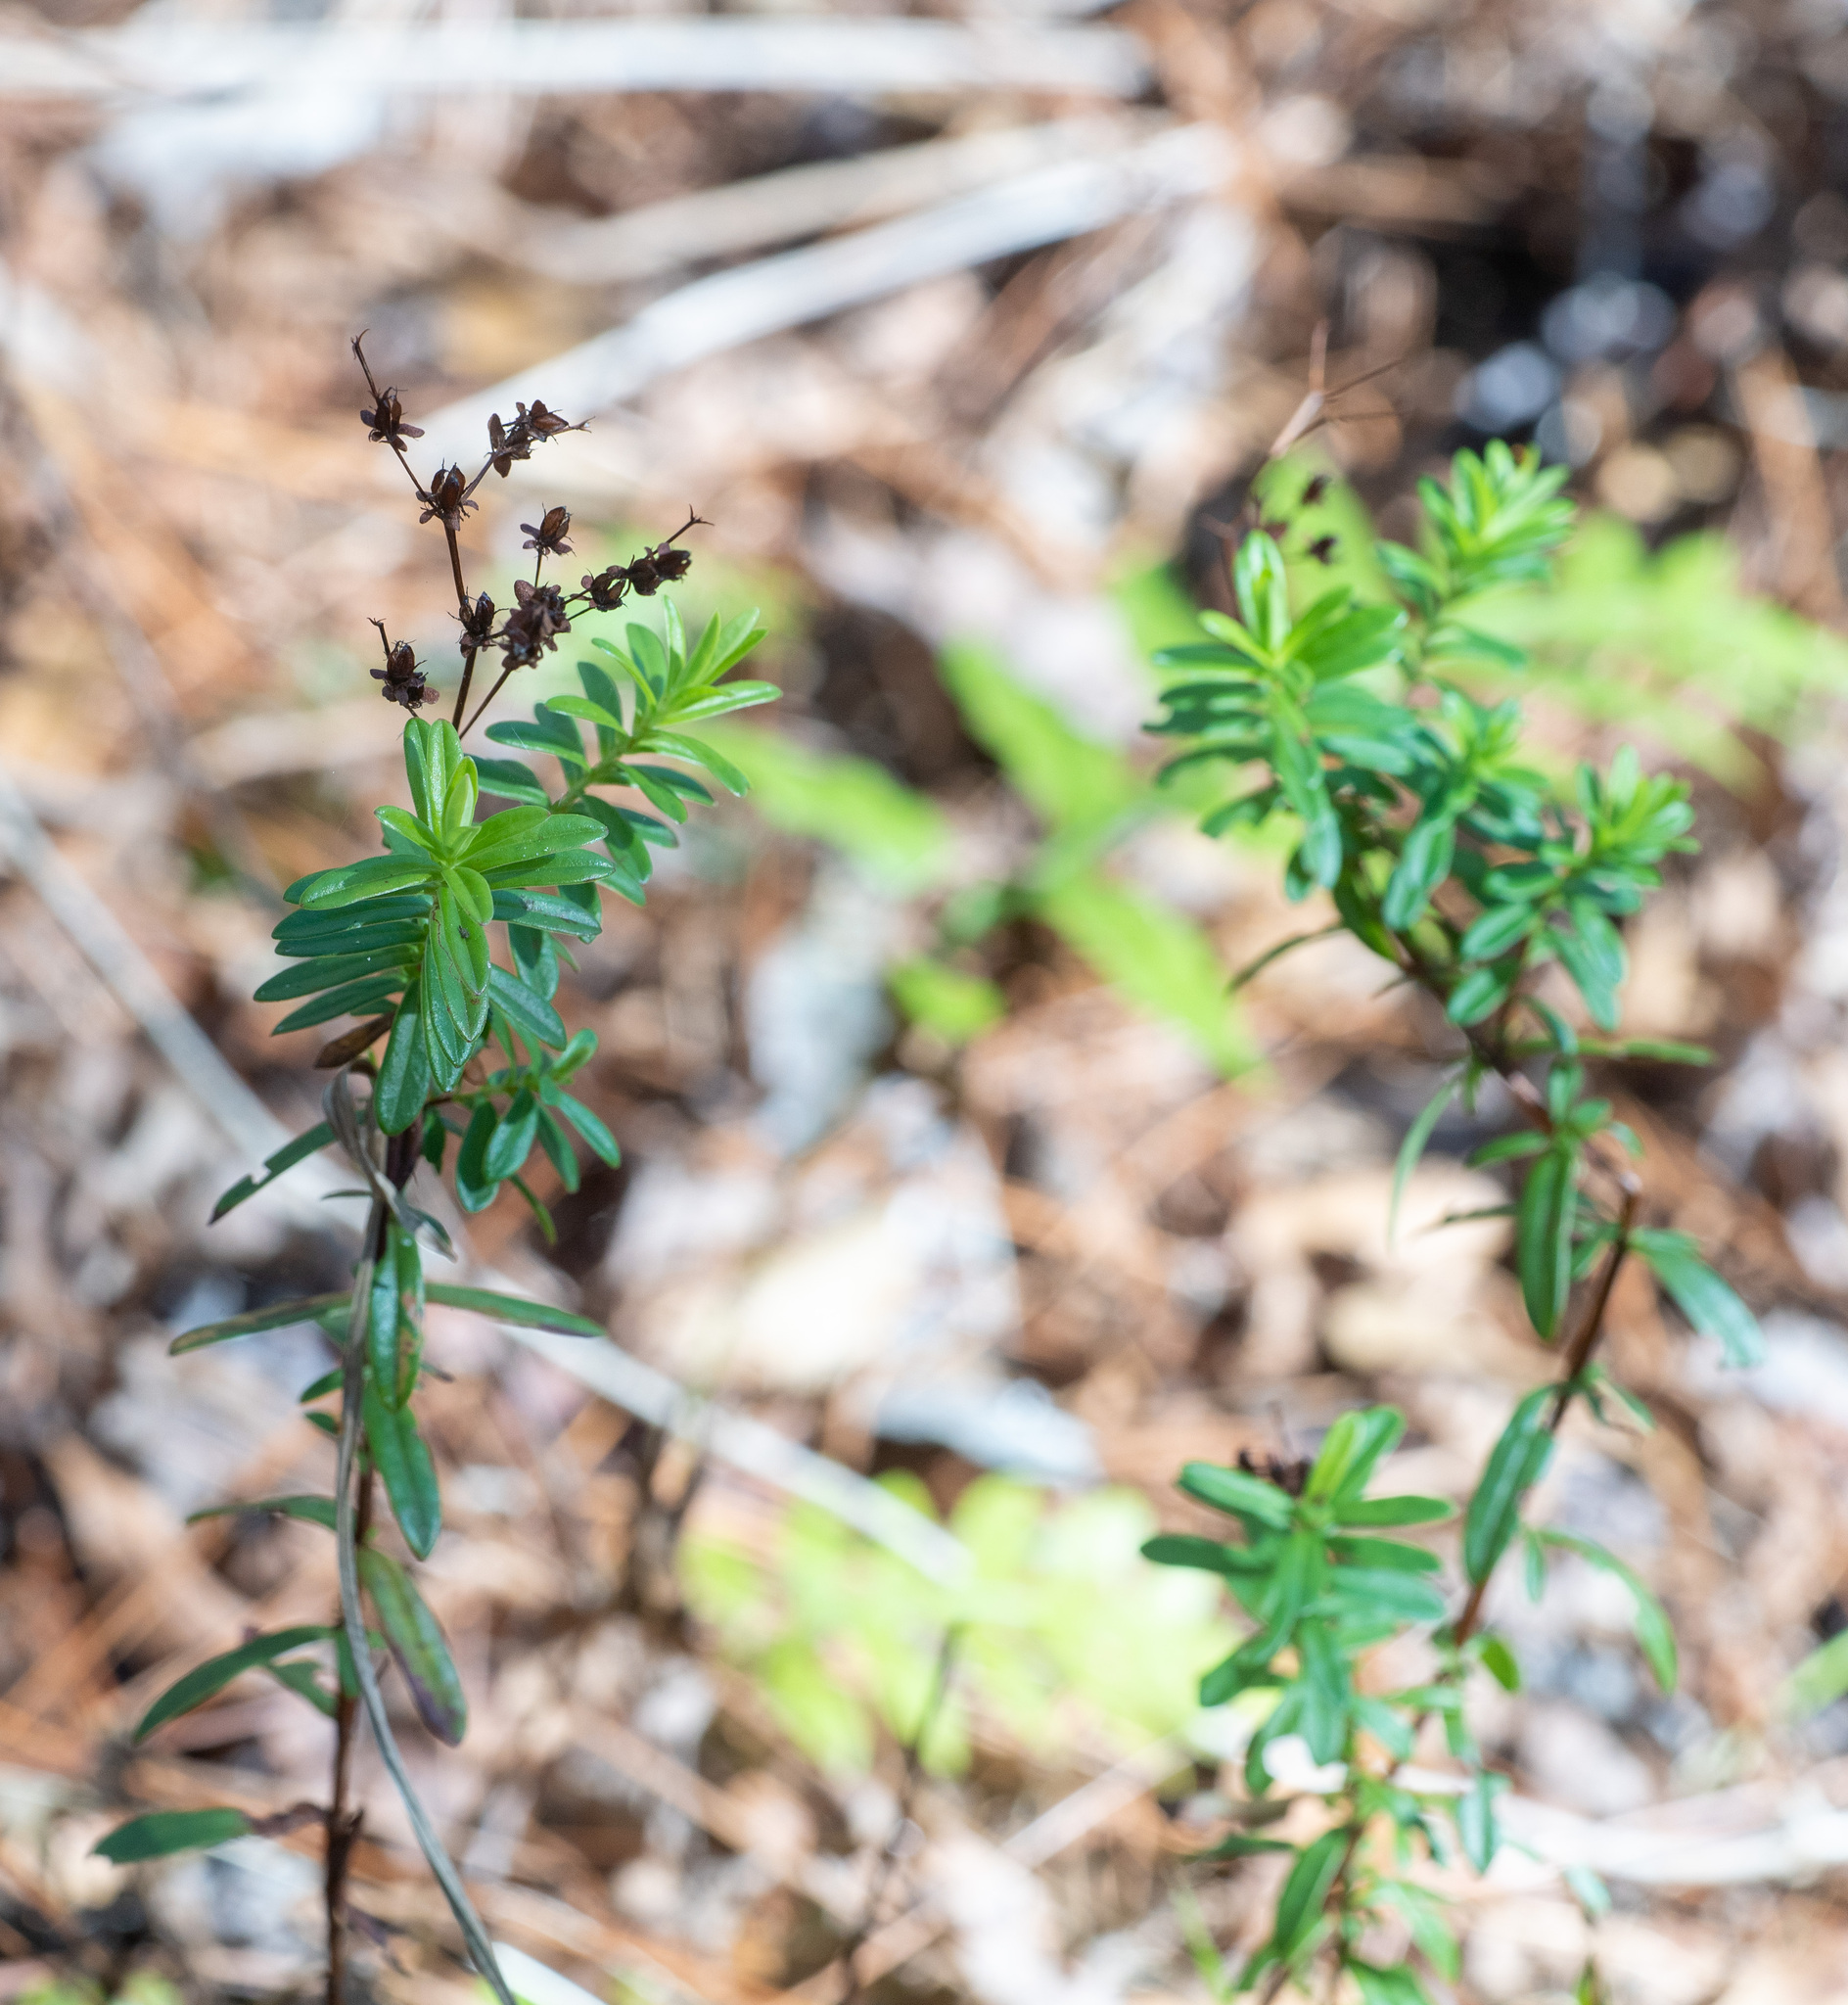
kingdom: Plantae
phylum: Tracheophyta
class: Magnoliopsida
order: Malpighiales
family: Hypericaceae
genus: Hypericum
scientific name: Hypericum cistifolium
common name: Round-pod st. john's-wort
